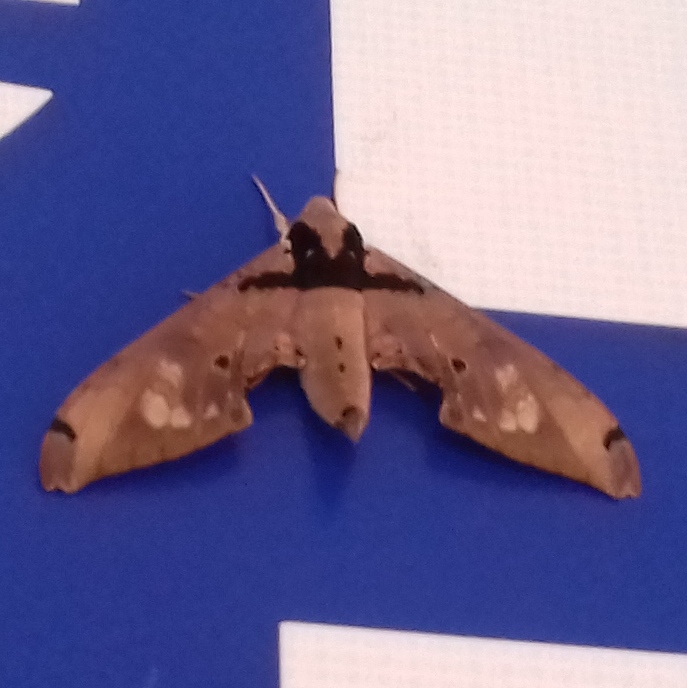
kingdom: Animalia
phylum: Arthropoda
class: Insecta
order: Lepidoptera
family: Sphingidae
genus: Adhemarius
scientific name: Adhemarius gannascus
